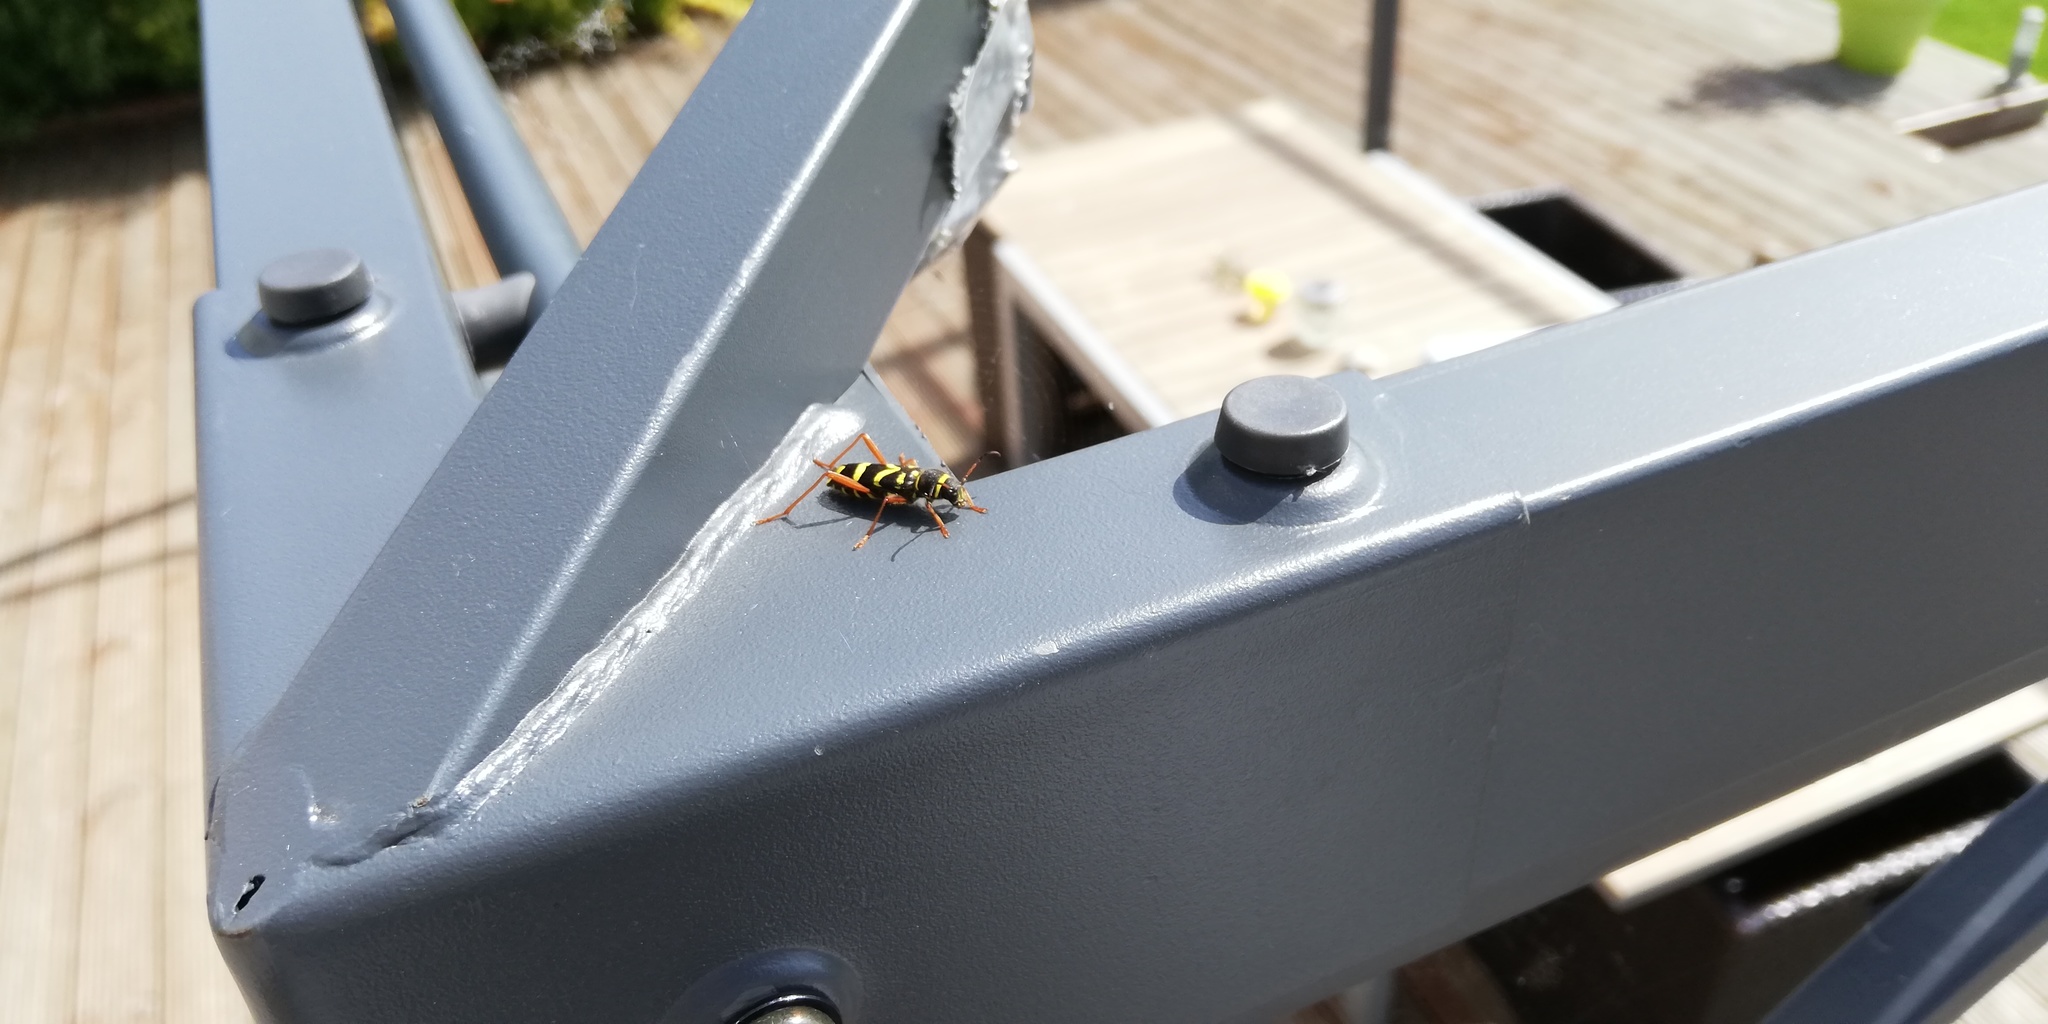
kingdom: Animalia
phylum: Arthropoda
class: Insecta
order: Coleoptera
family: Cerambycidae
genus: Clytus
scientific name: Clytus arietis
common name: Wasp beetle
